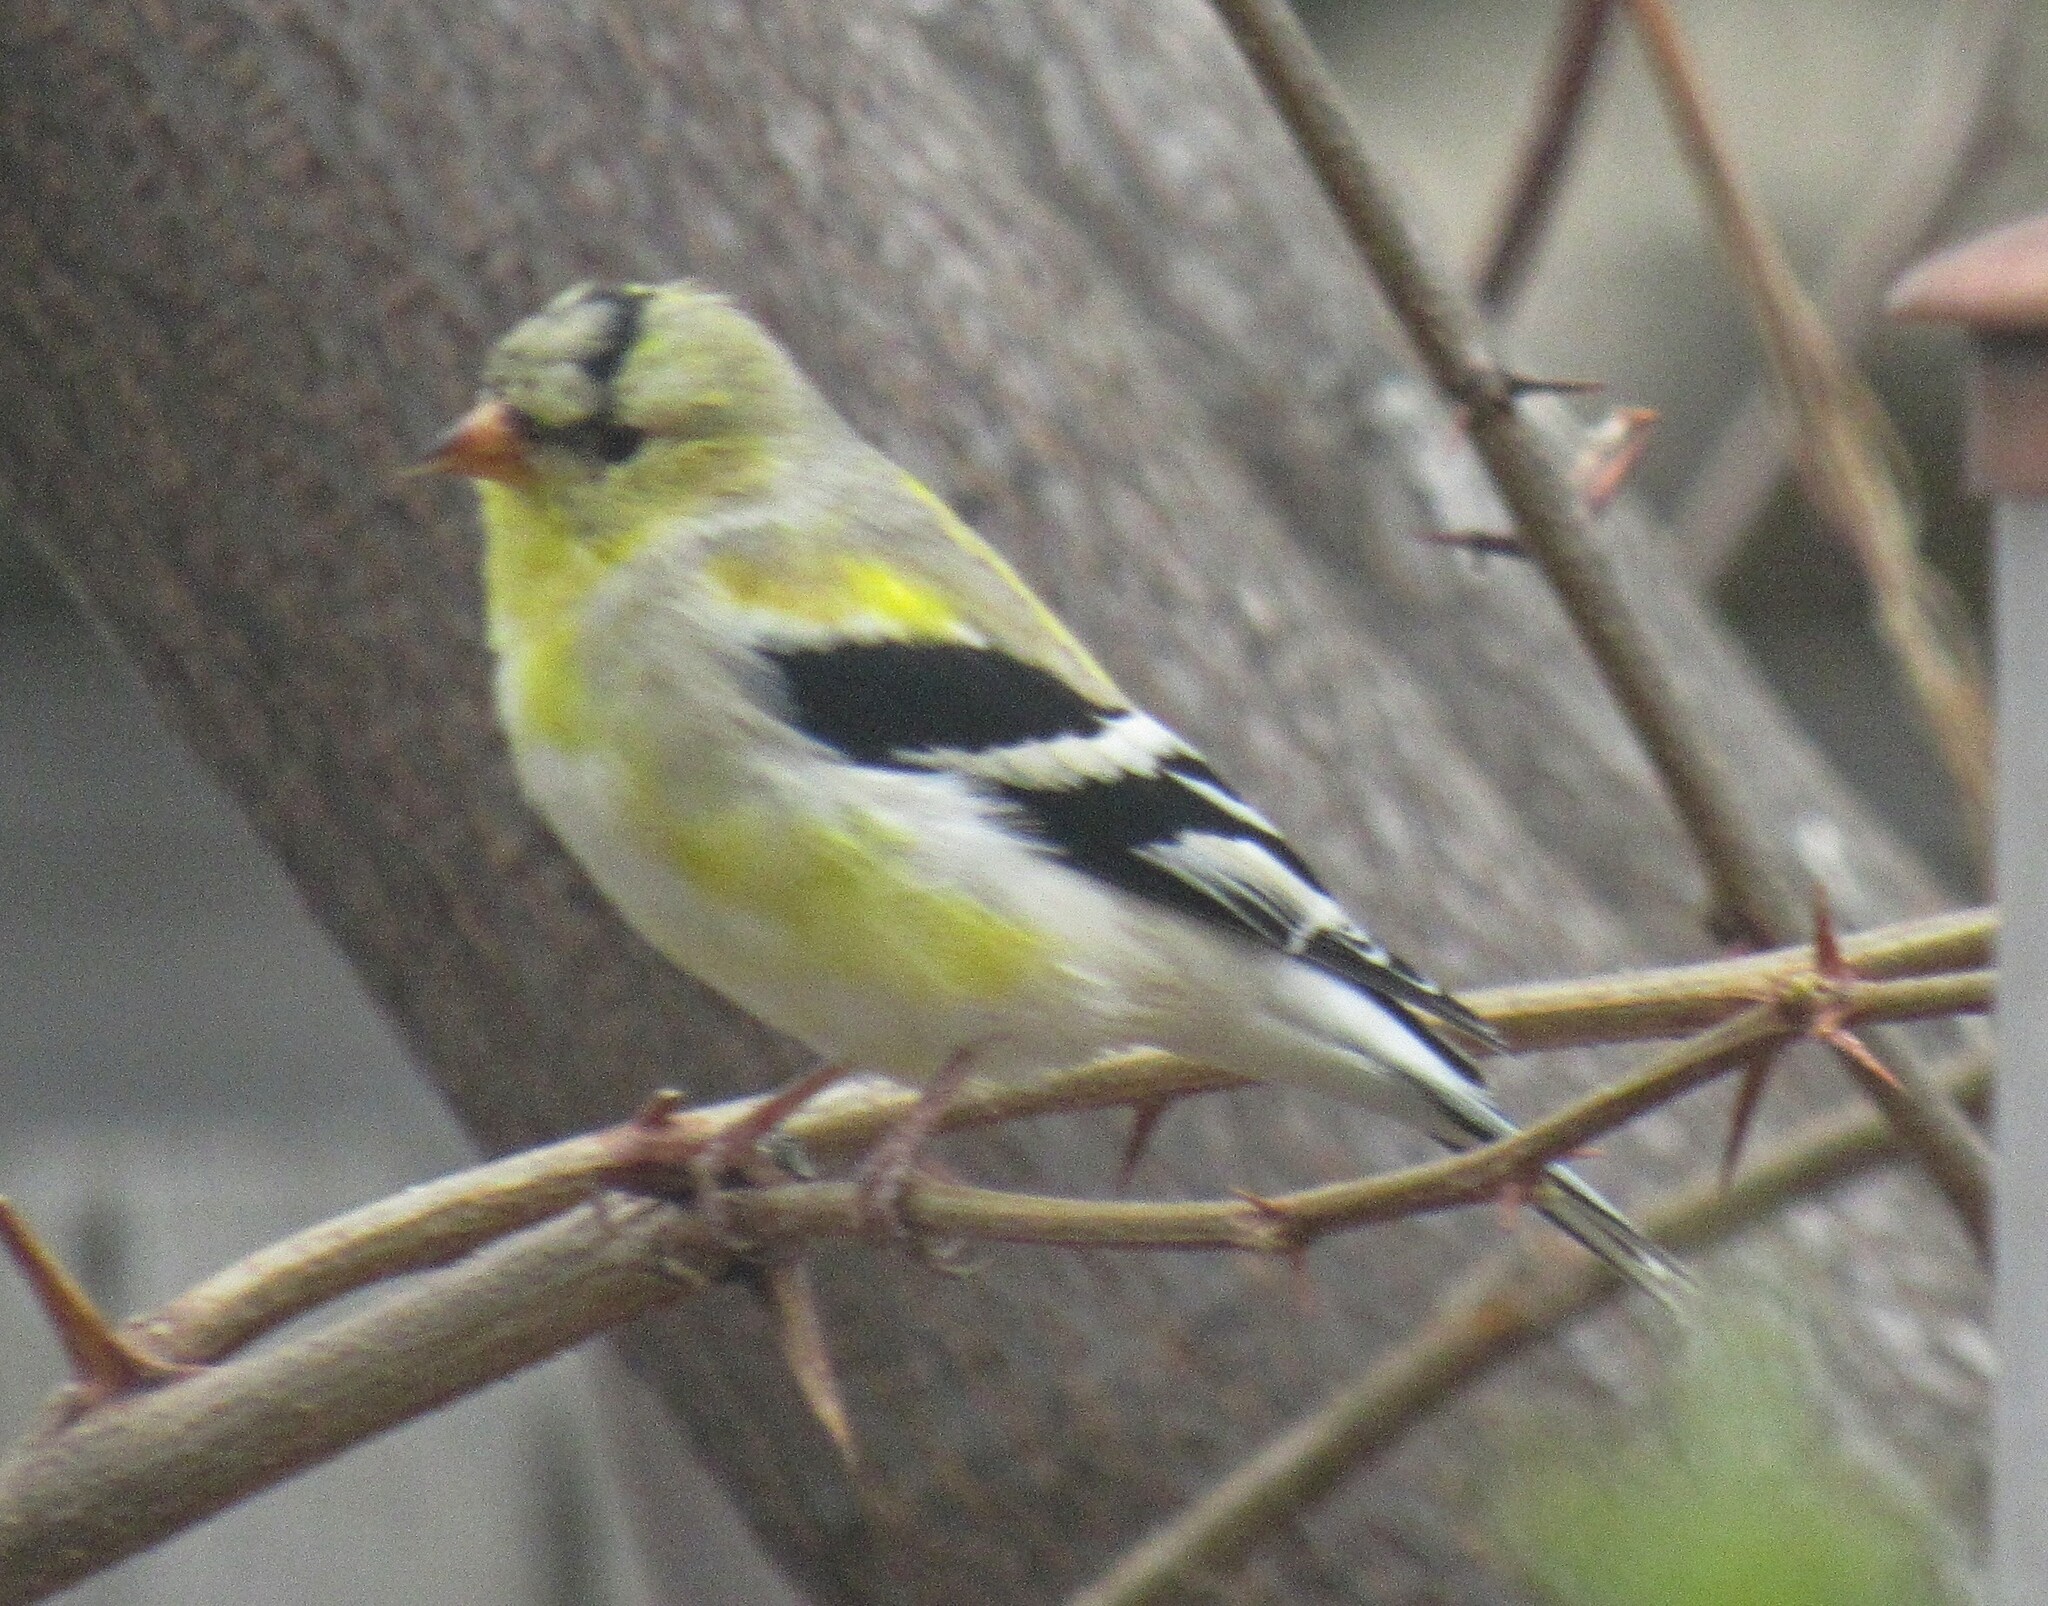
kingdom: Animalia
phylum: Chordata
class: Aves
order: Passeriformes
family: Fringillidae
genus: Spinus
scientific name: Spinus tristis
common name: American goldfinch
